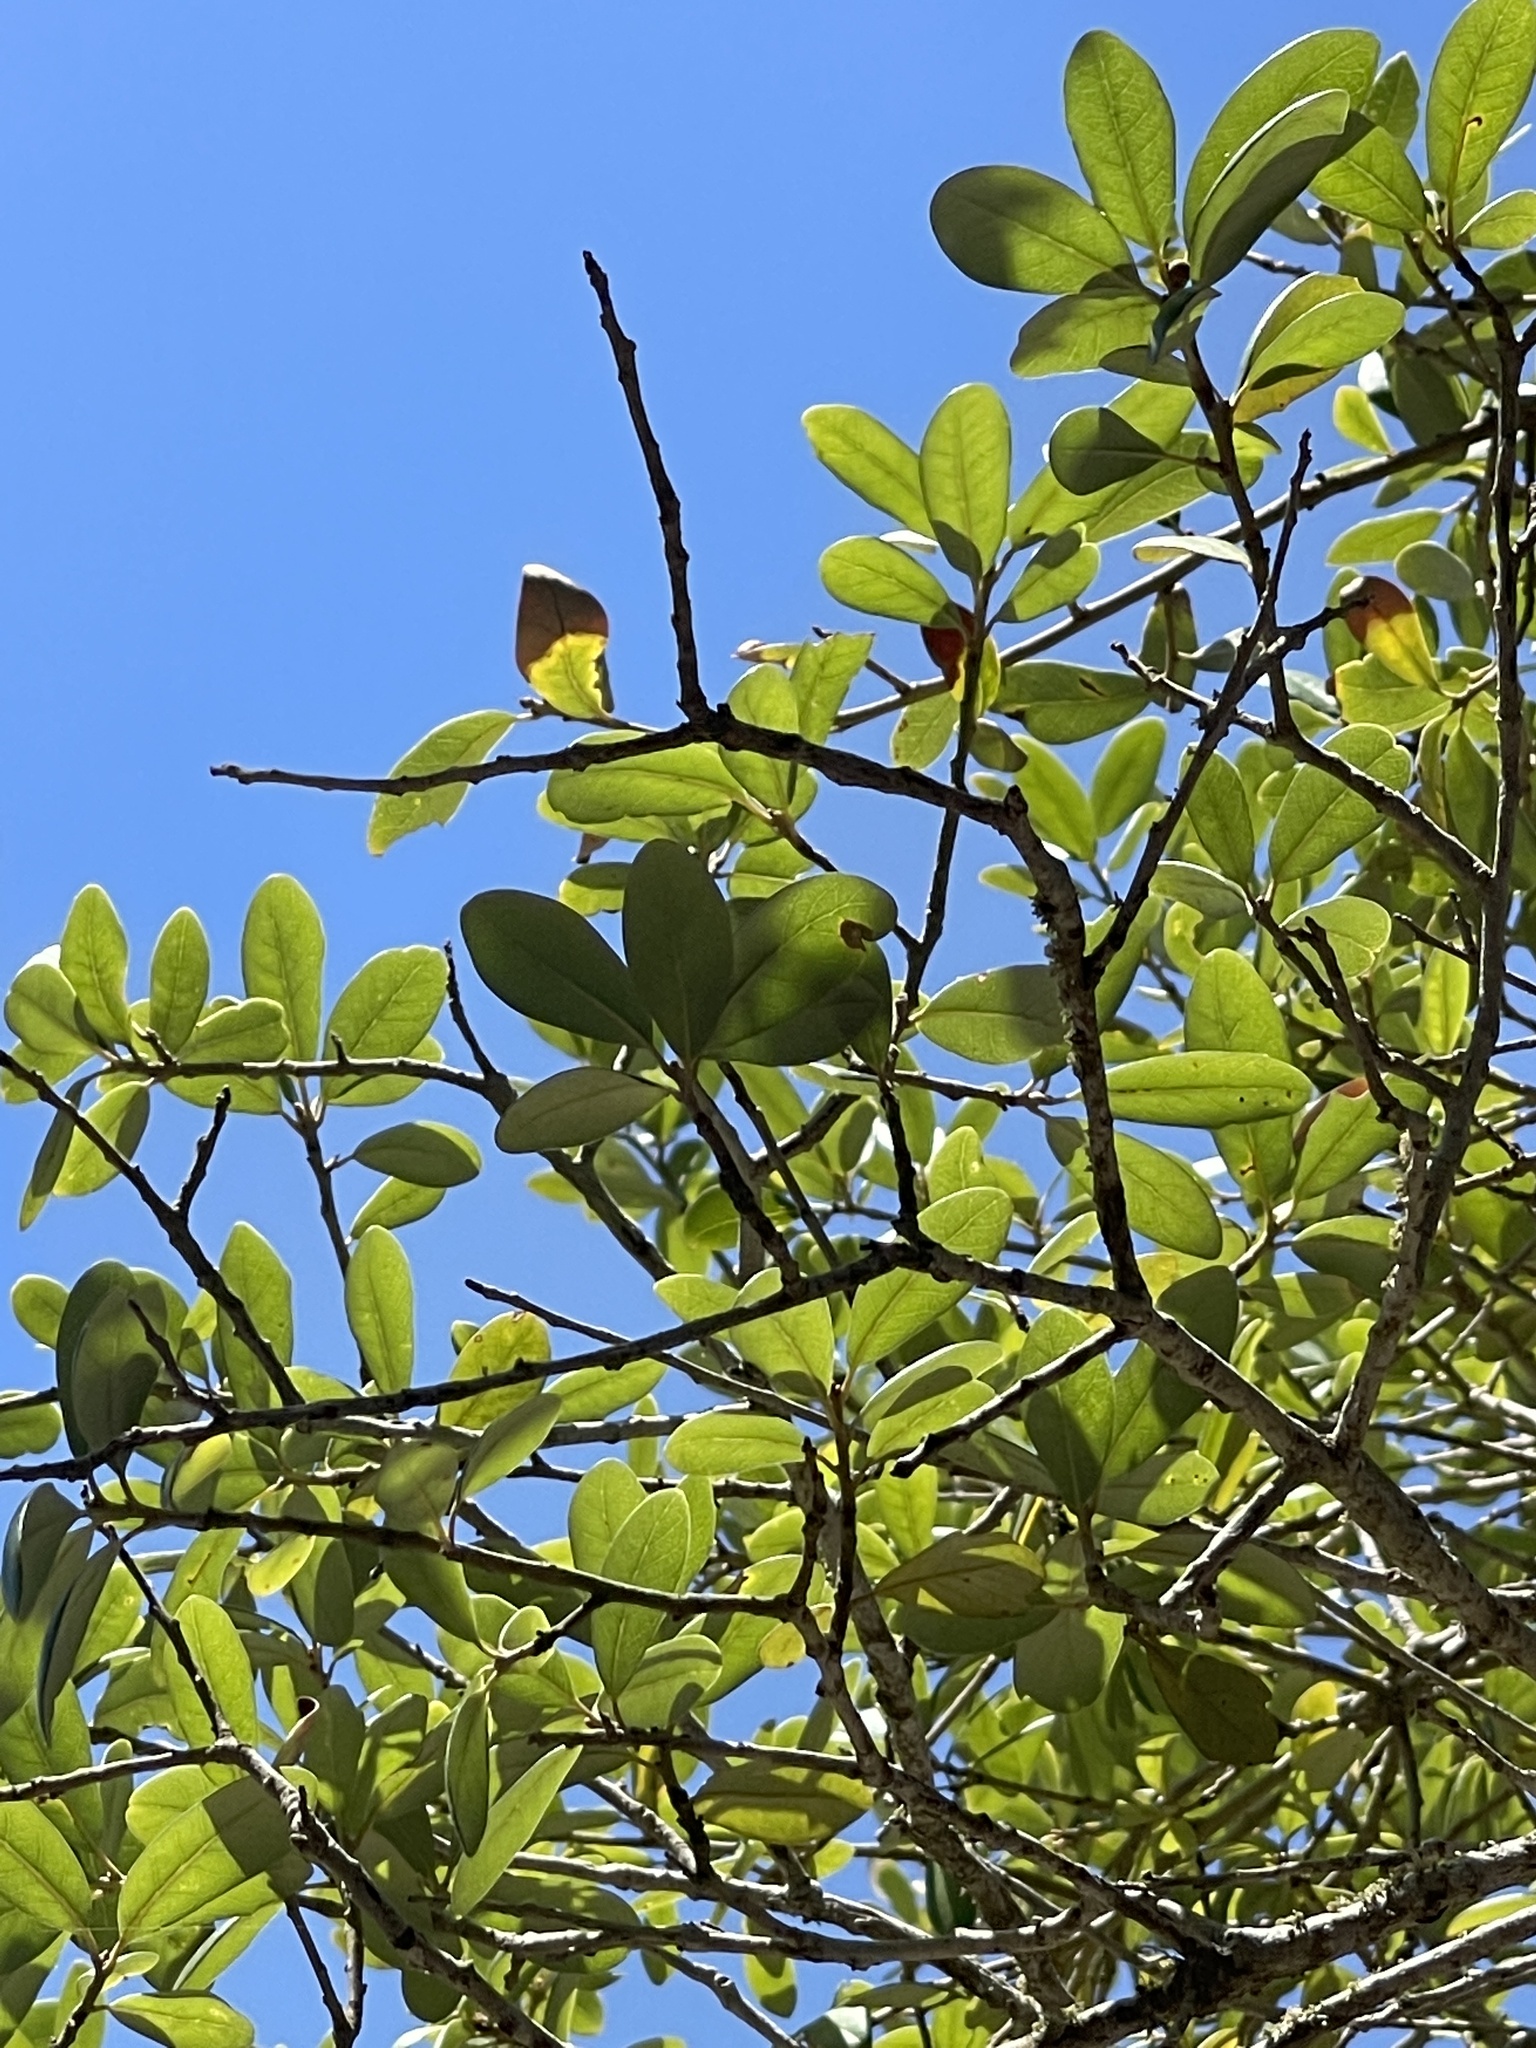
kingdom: Plantae
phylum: Tracheophyta
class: Magnoliopsida
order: Fagales
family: Fagaceae
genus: Quercus
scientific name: Quercus fusiformis
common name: Texas live oak
